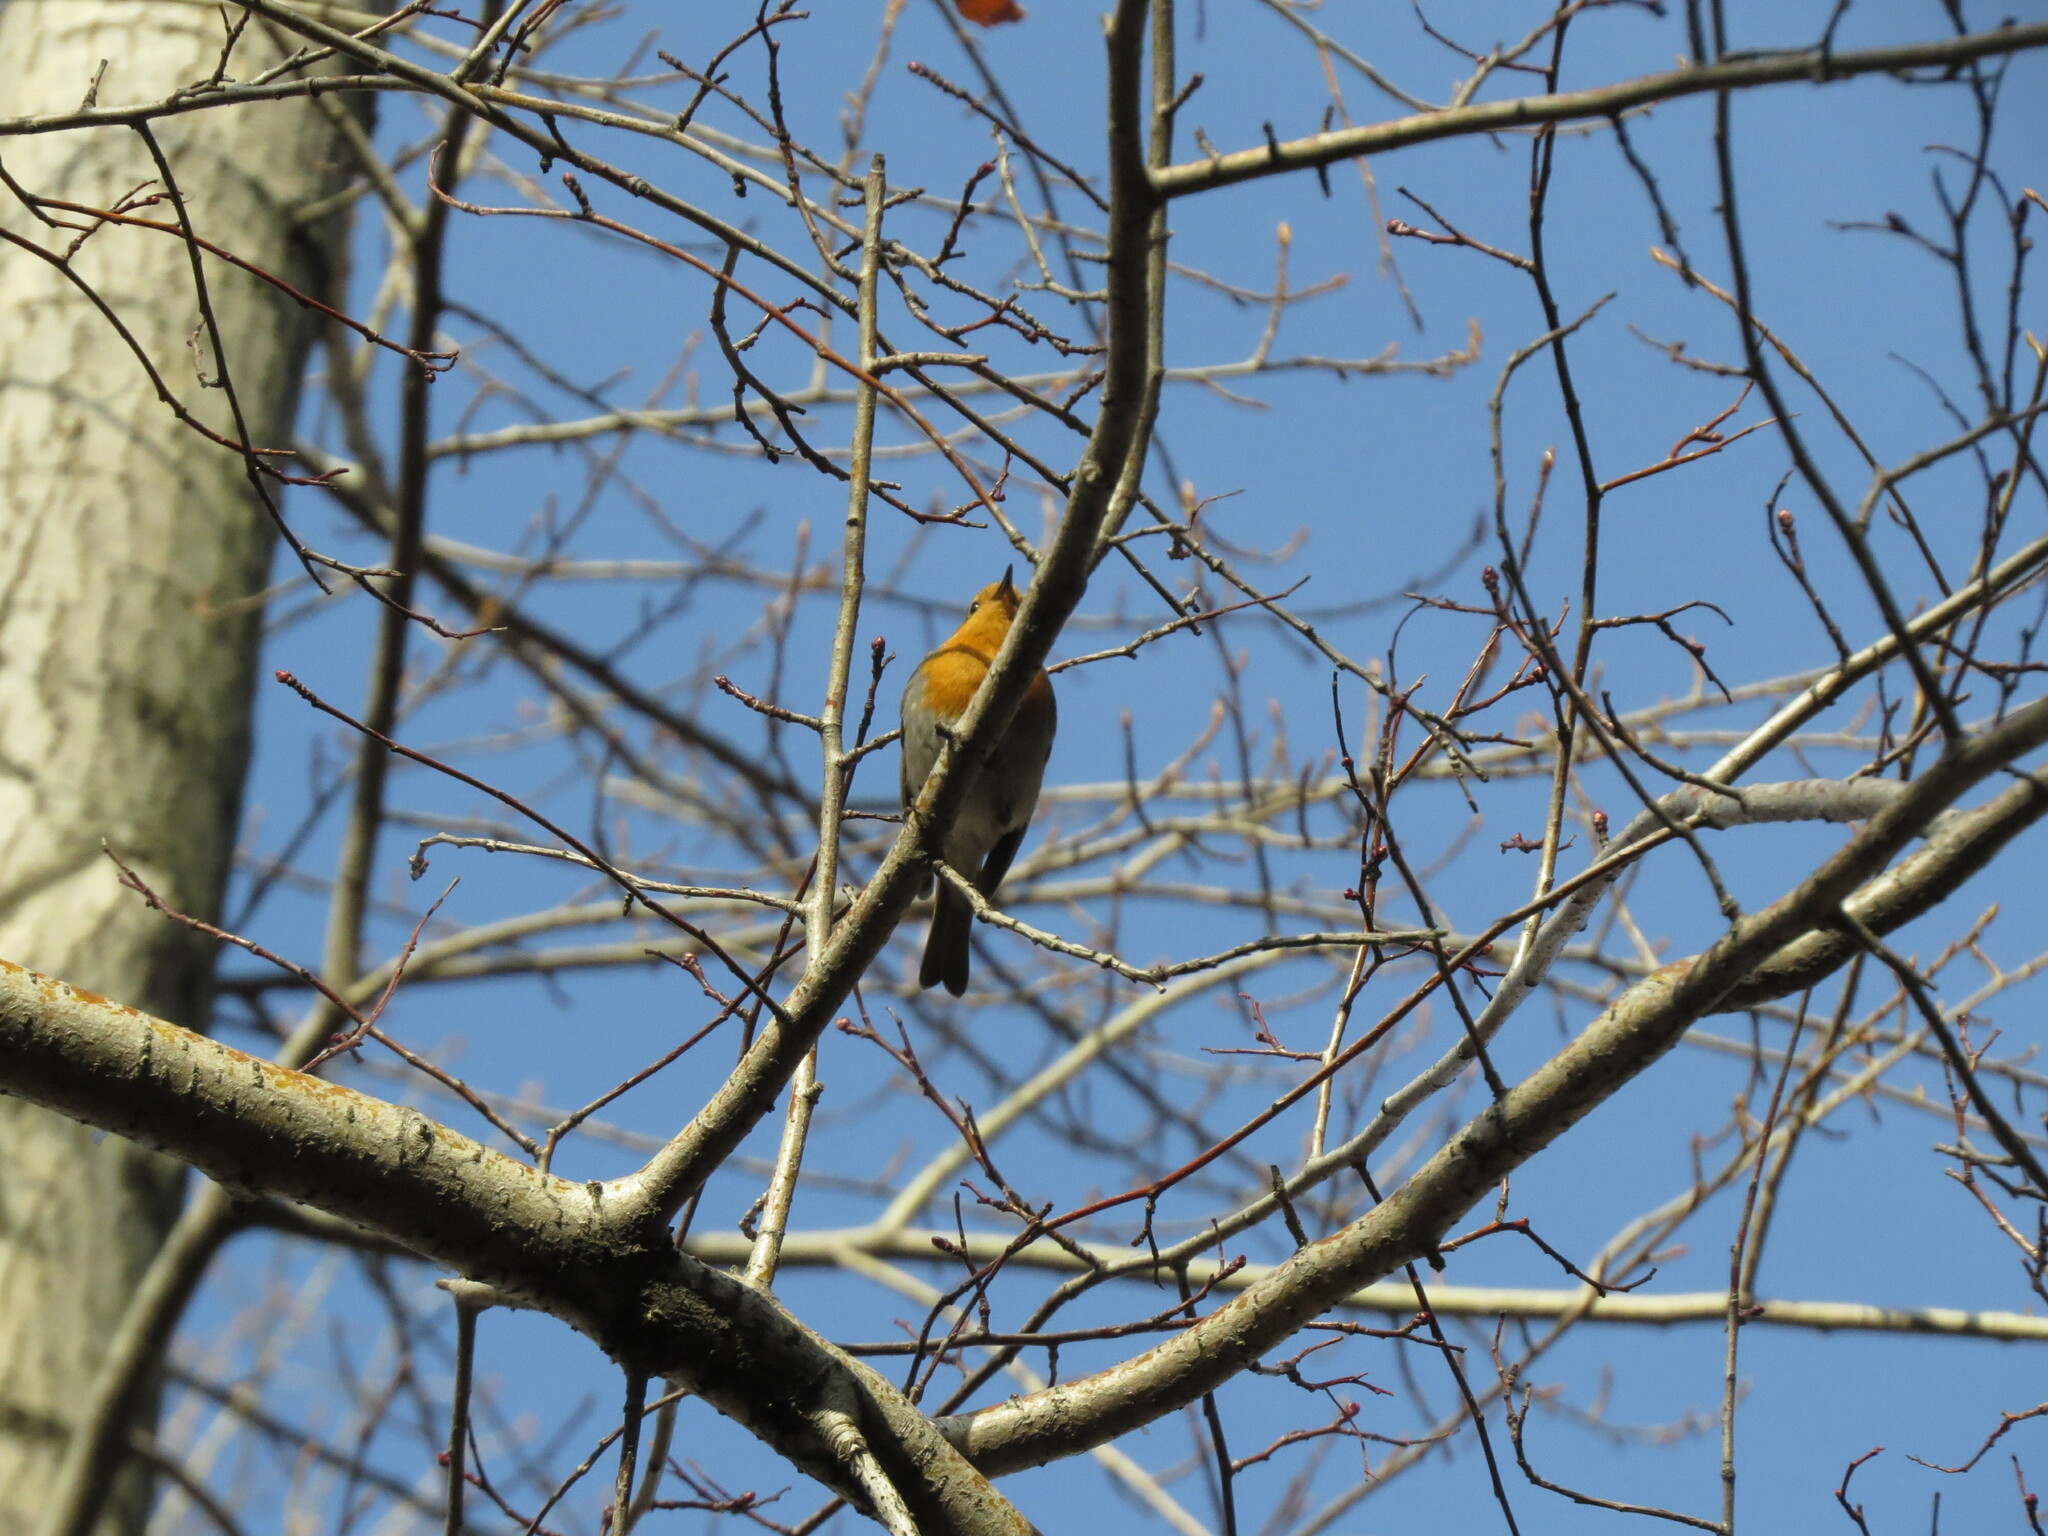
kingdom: Animalia
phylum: Chordata
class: Aves
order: Passeriformes
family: Muscicapidae
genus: Erithacus
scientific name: Erithacus rubecula
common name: European robin
